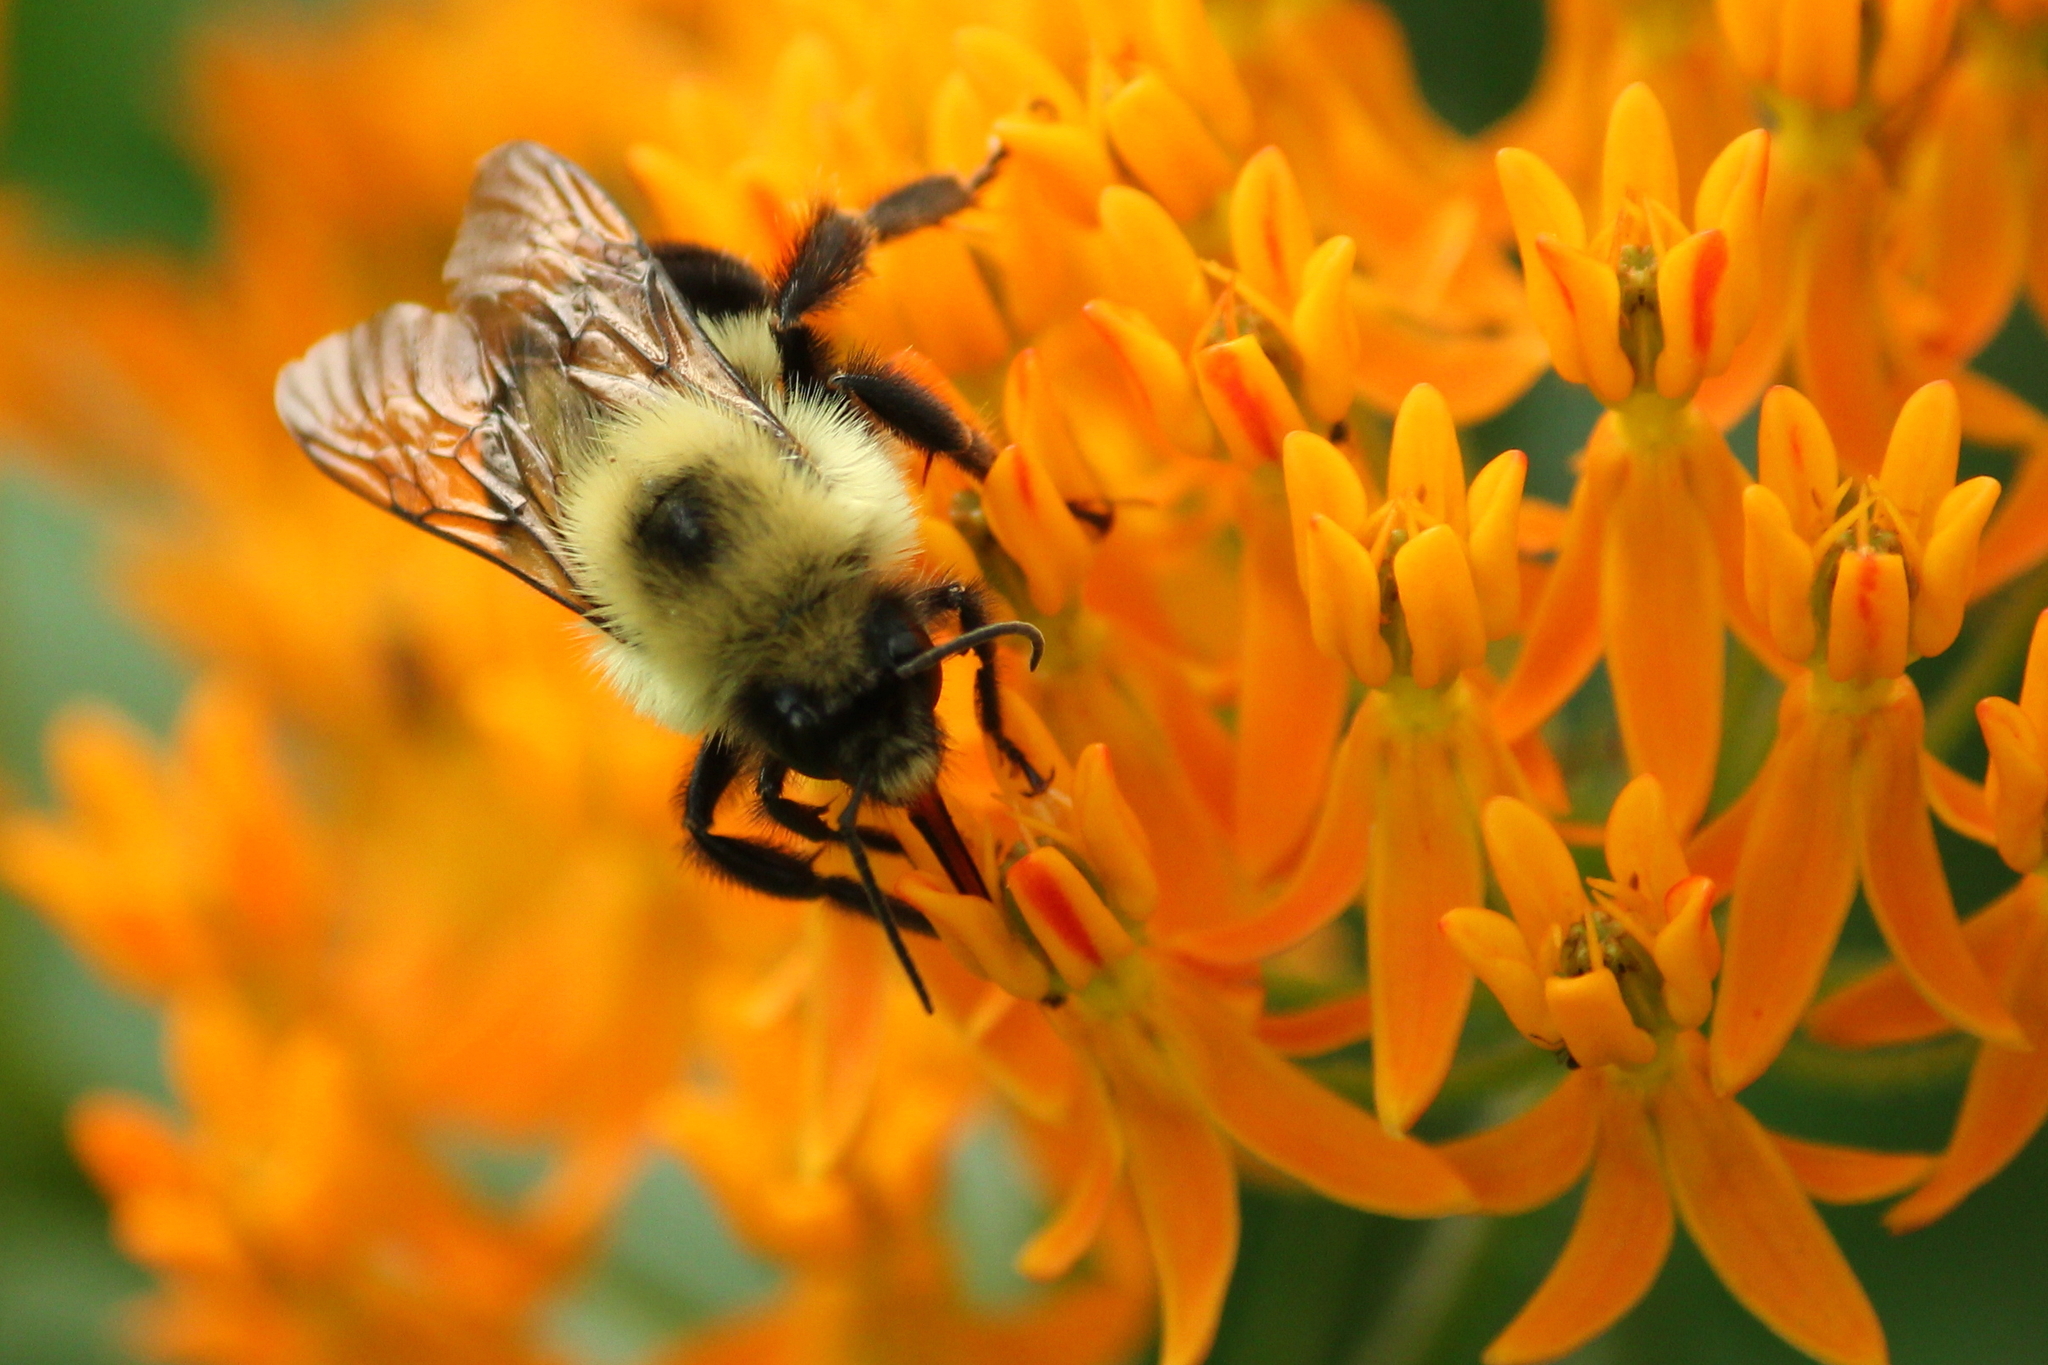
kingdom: Animalia
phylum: Arthropoda
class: Insecta
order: Hymenoptera
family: Apidae
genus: Bombus
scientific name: Bombus bimaculatus
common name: Two-spotted bumble bee
